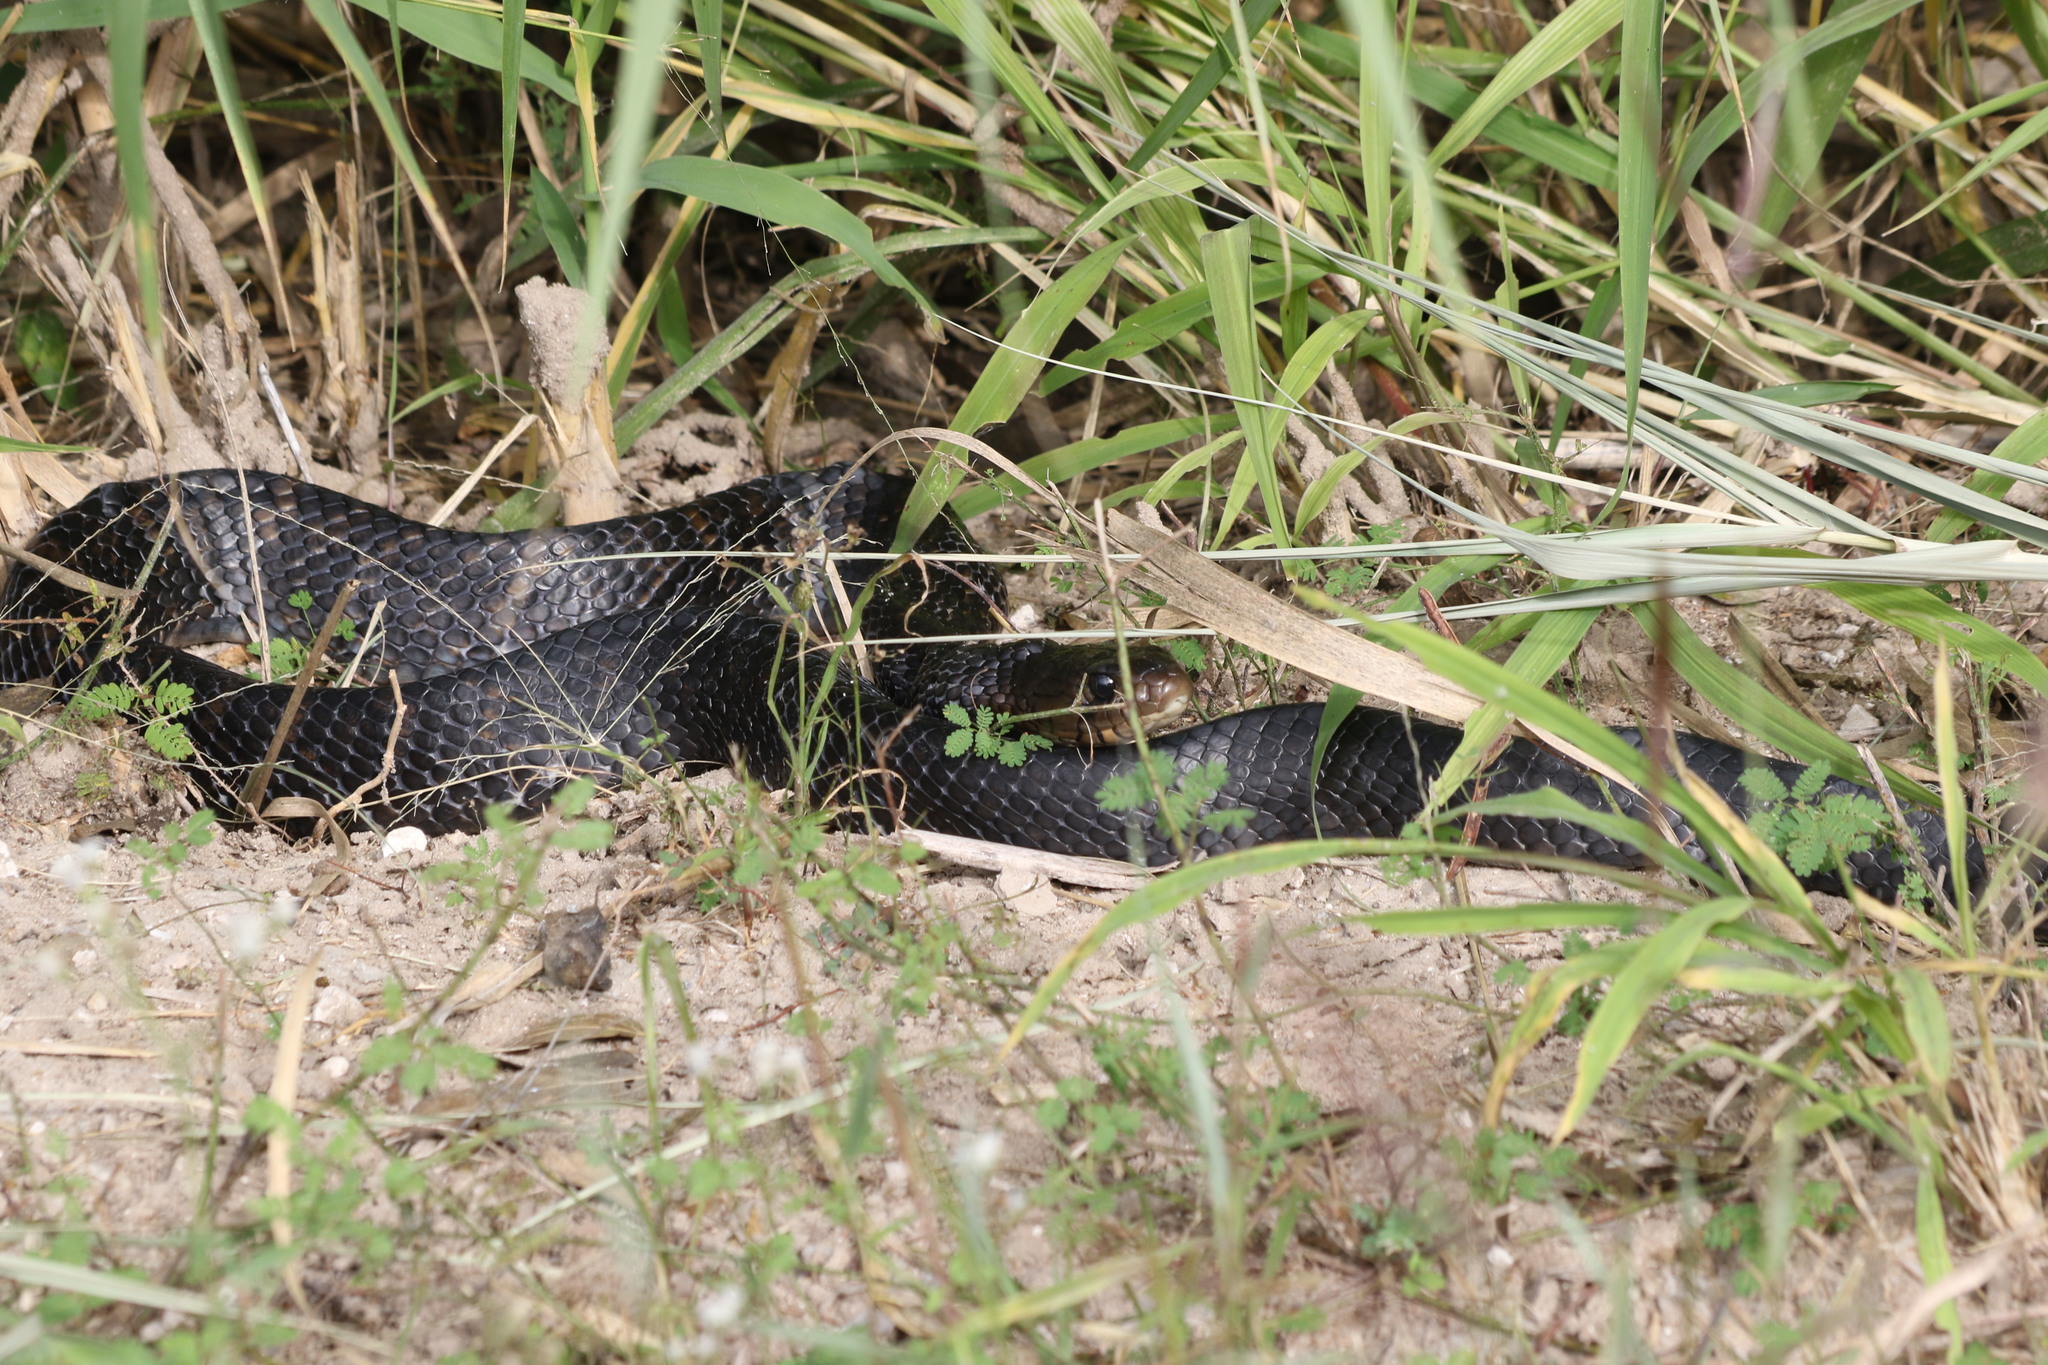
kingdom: Animalia
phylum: Chordata
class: Squamata
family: Colubridae
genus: Drymarchon
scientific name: Drymarchon melanurus
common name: Central american indigo snake
